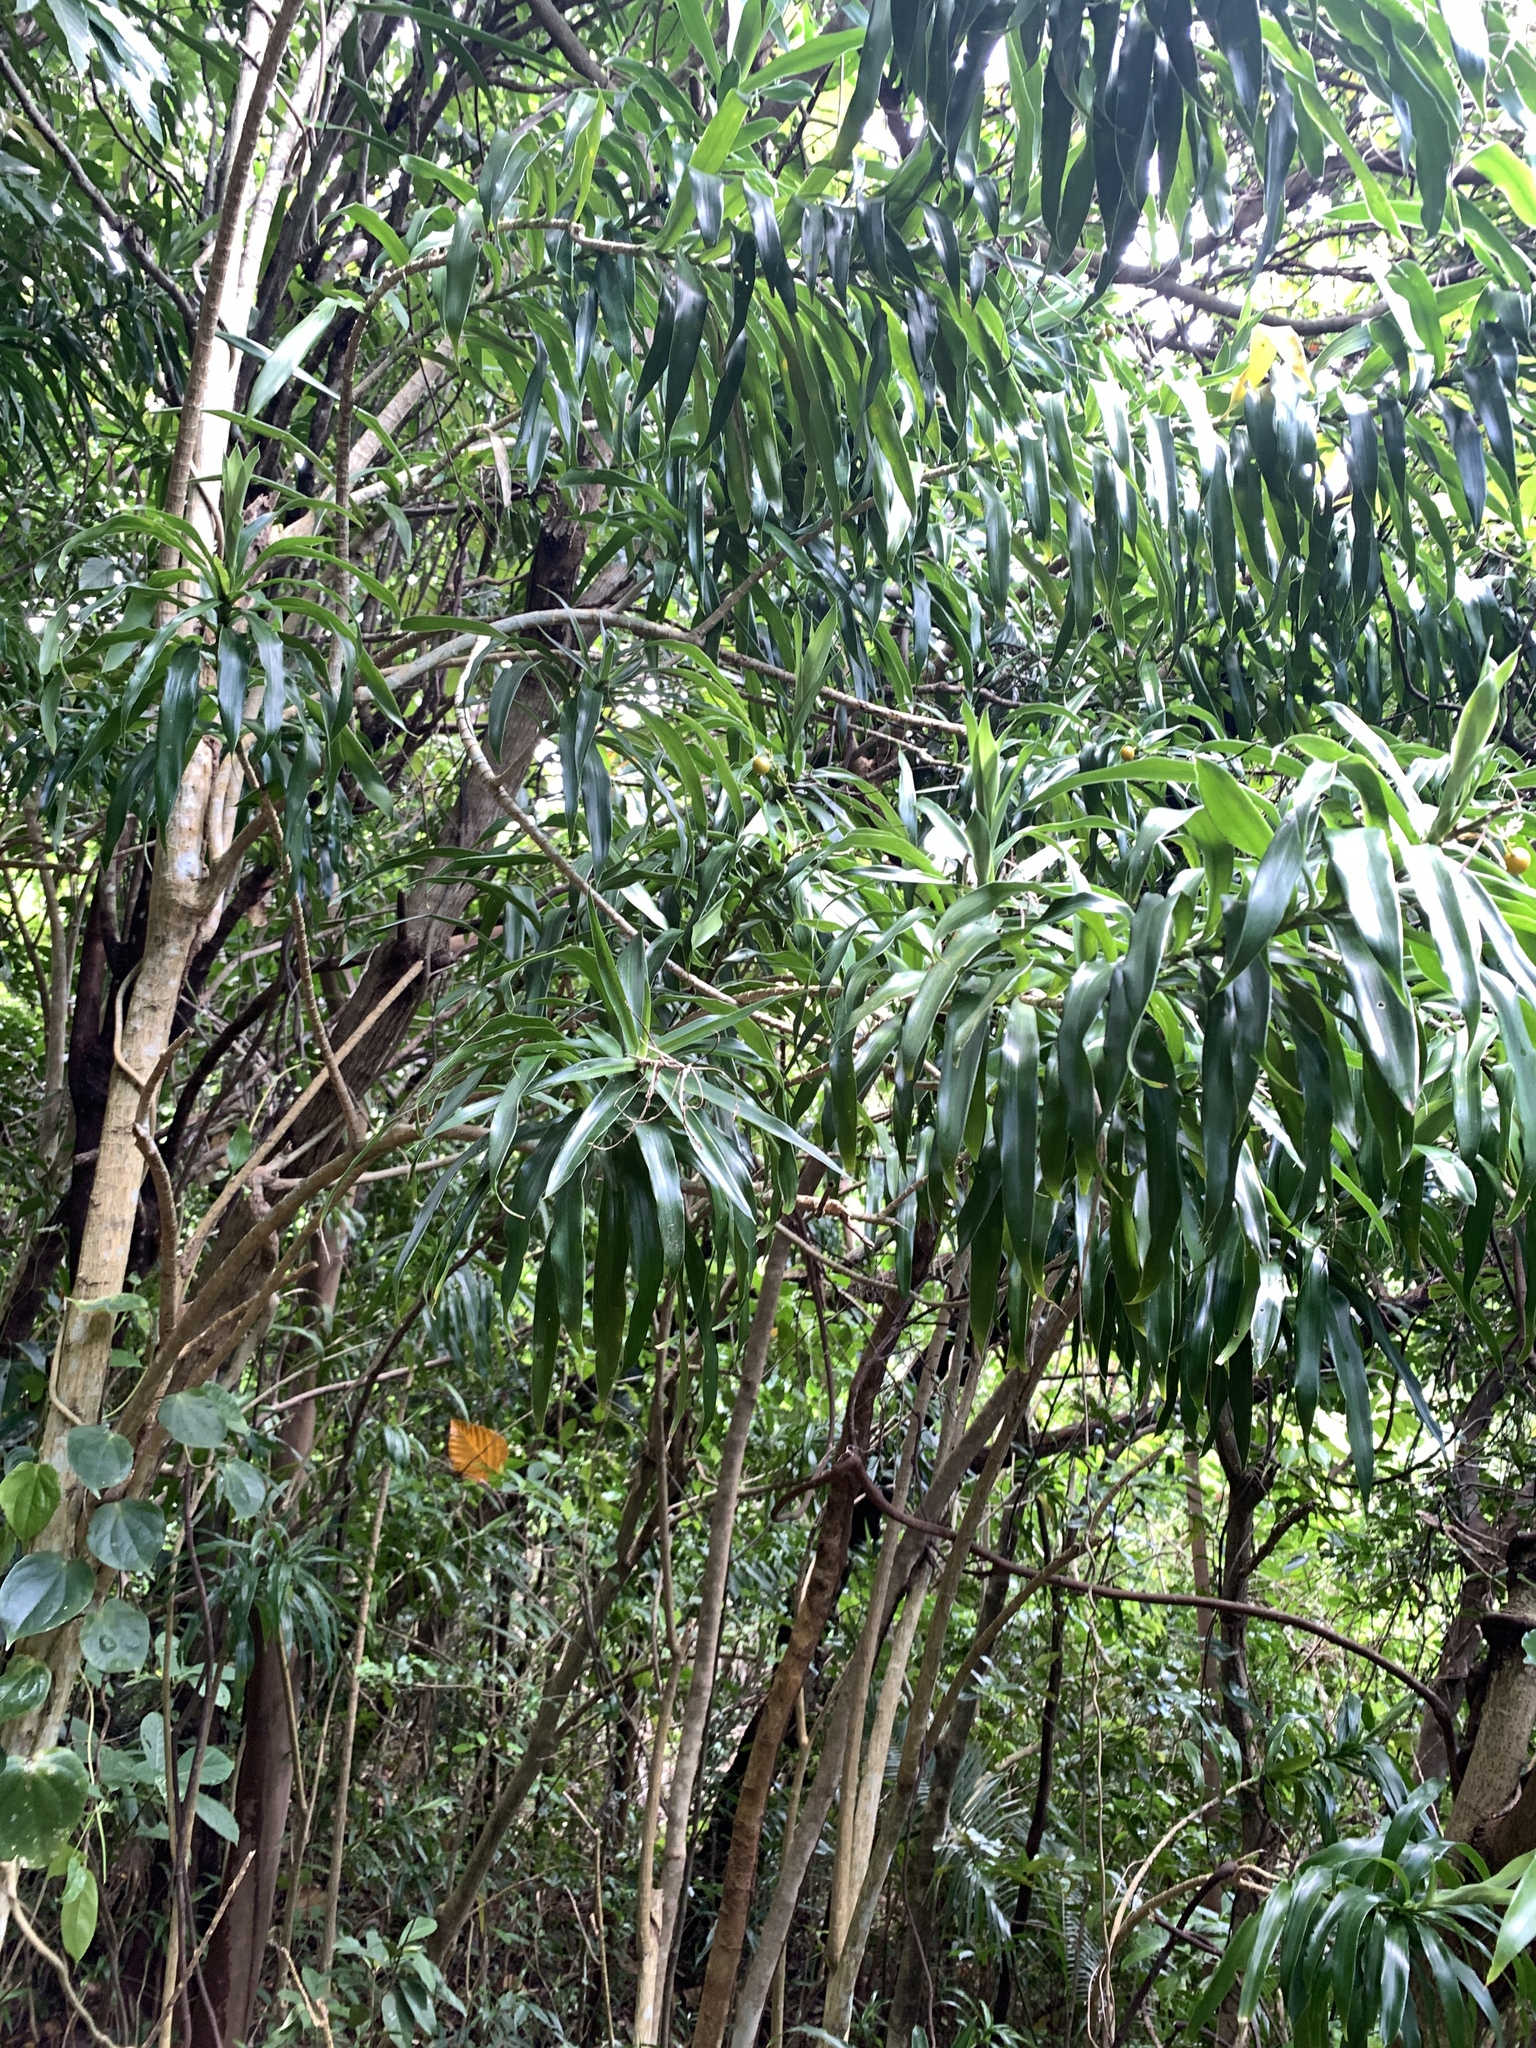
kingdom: Plantae
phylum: Tracheophyta
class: Liliopsida
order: Asparagales
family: Asparagaceae
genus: Dracaena
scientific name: Dracaena angustifolia
